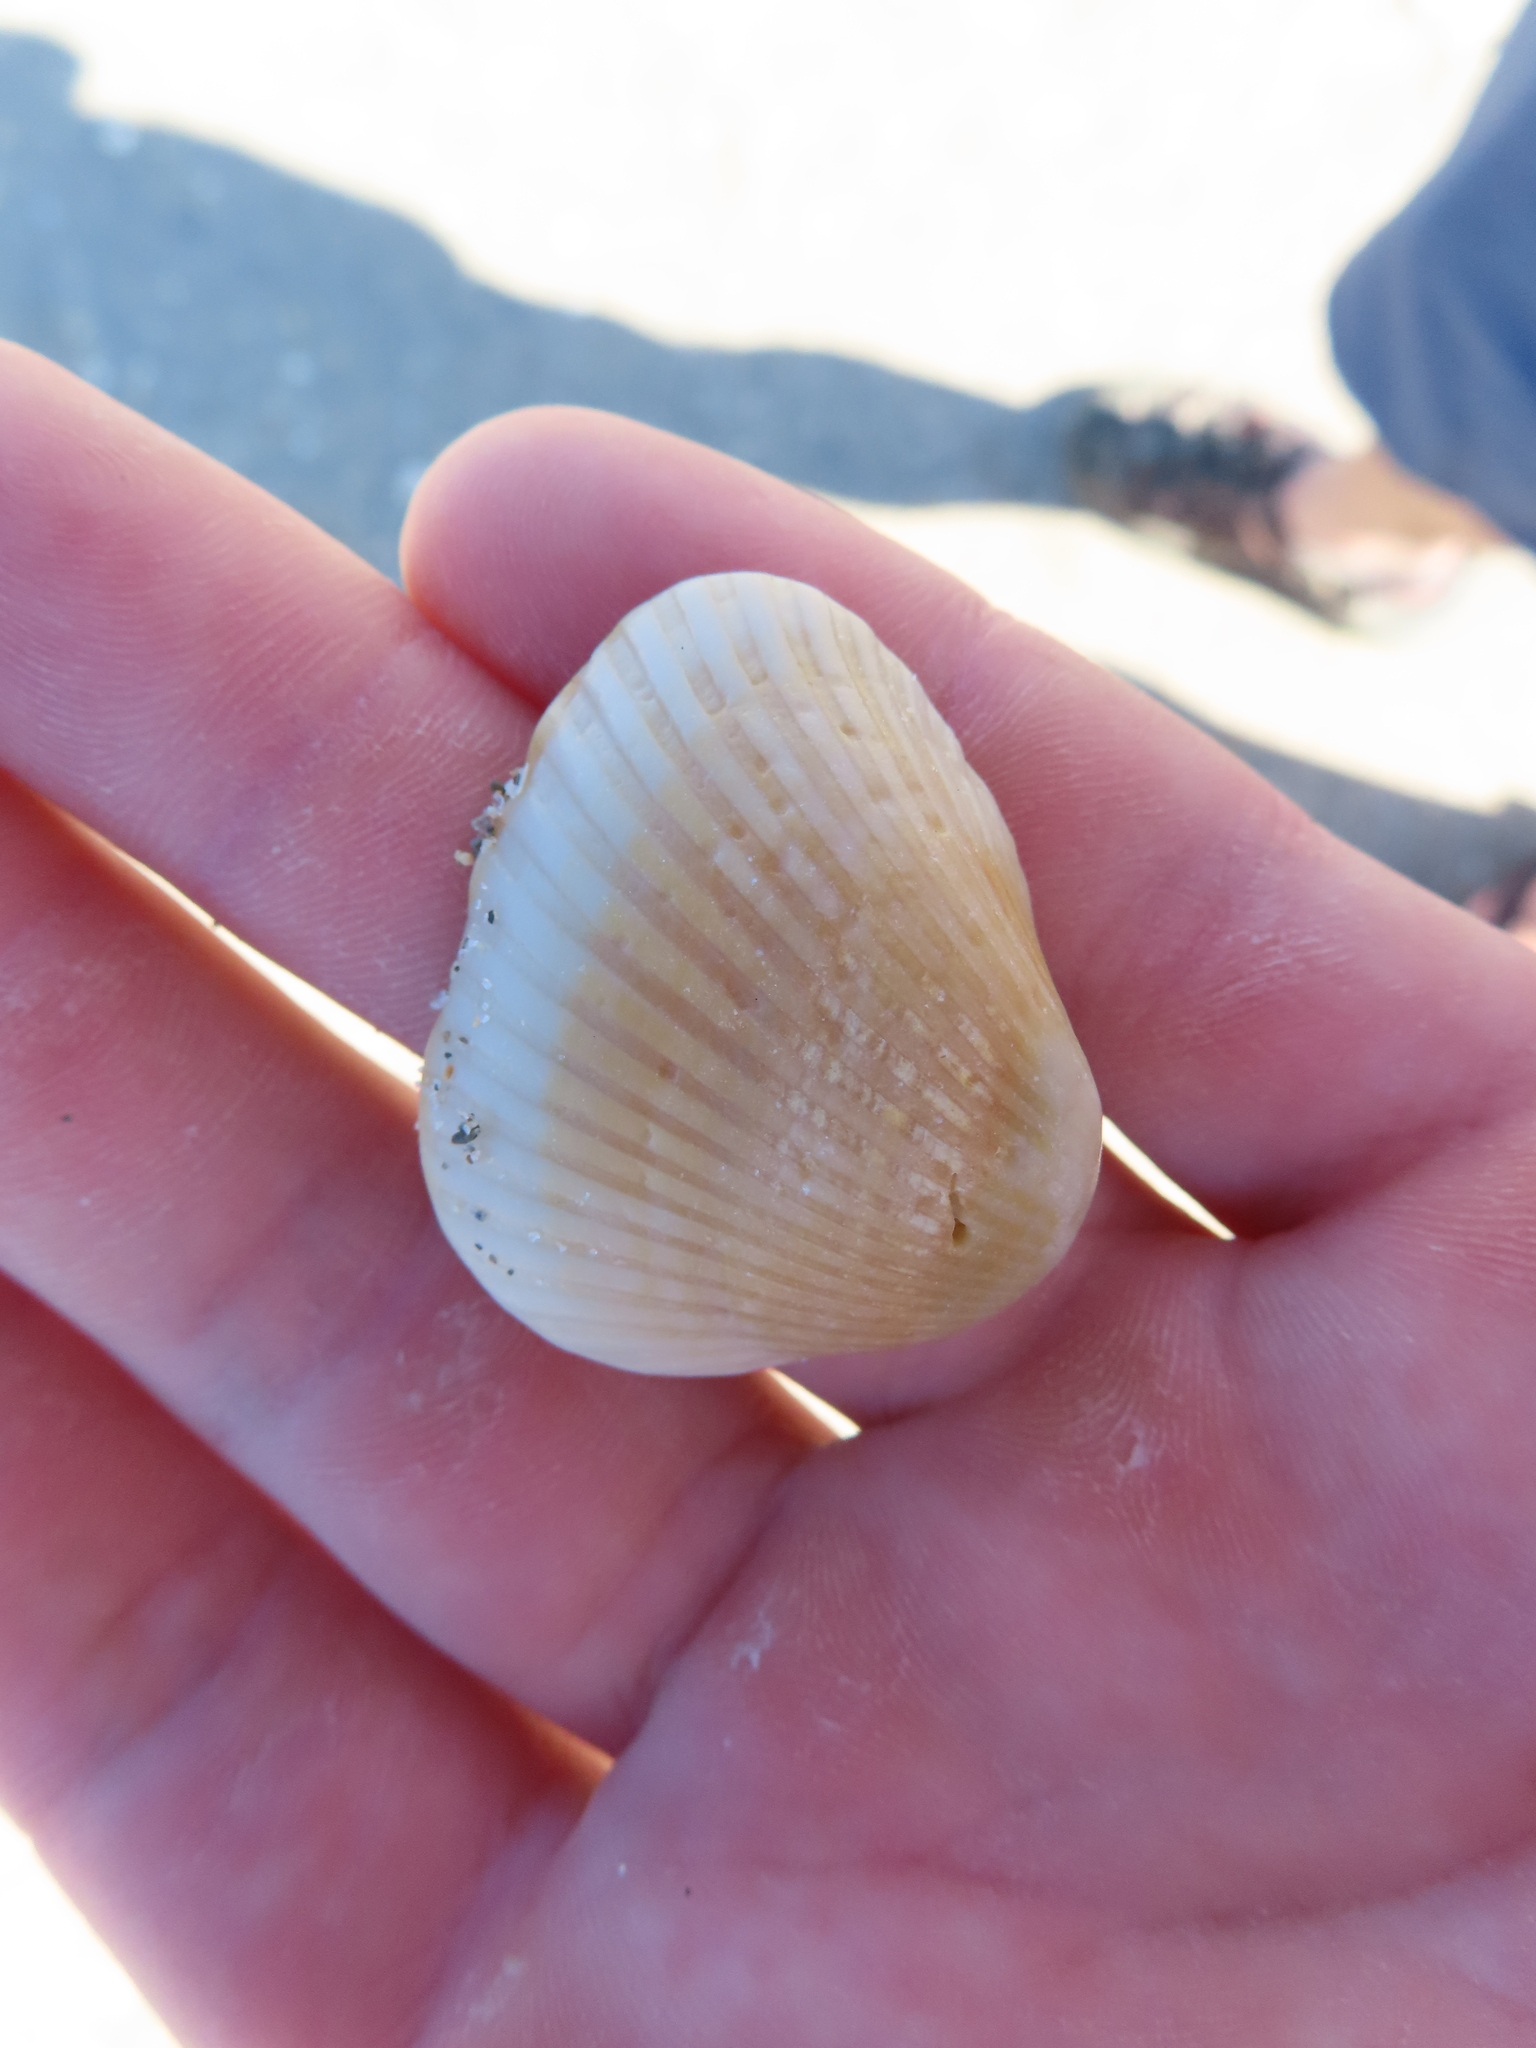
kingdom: Animalia
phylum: Mollusca
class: Bivalvia
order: Arcida
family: Noetiidae
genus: Noetia
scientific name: Noetia ponderosa
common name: Ponderous ark
